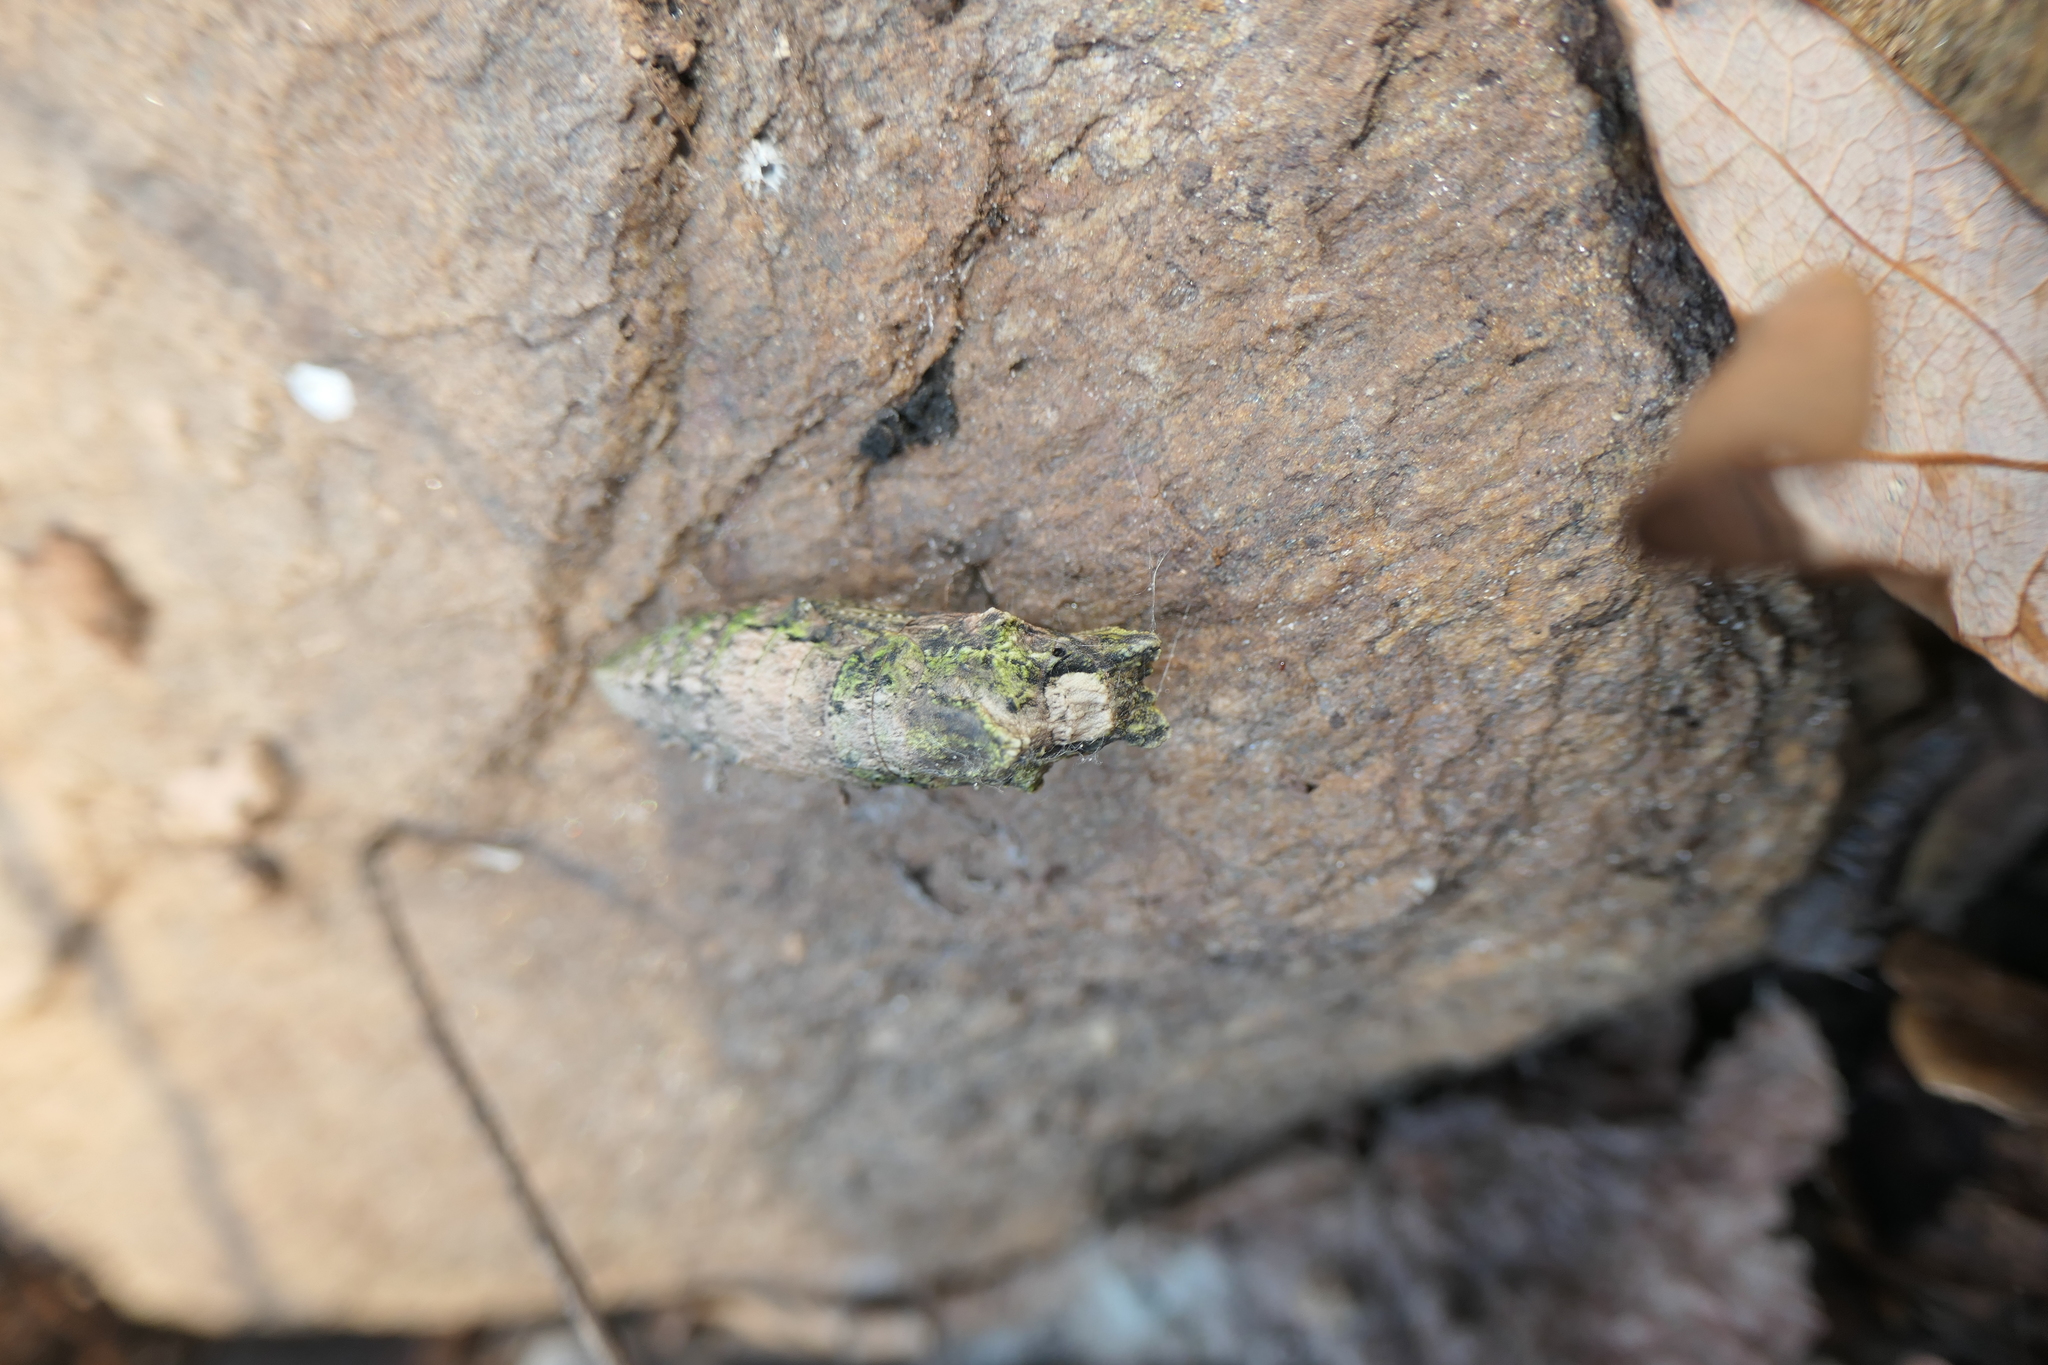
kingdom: Animalia
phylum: Arthropoda
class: Insecta
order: Lepidoptera
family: Papilionidae
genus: Papilio
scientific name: Papilio glaucus
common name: Tiger swallowtail
